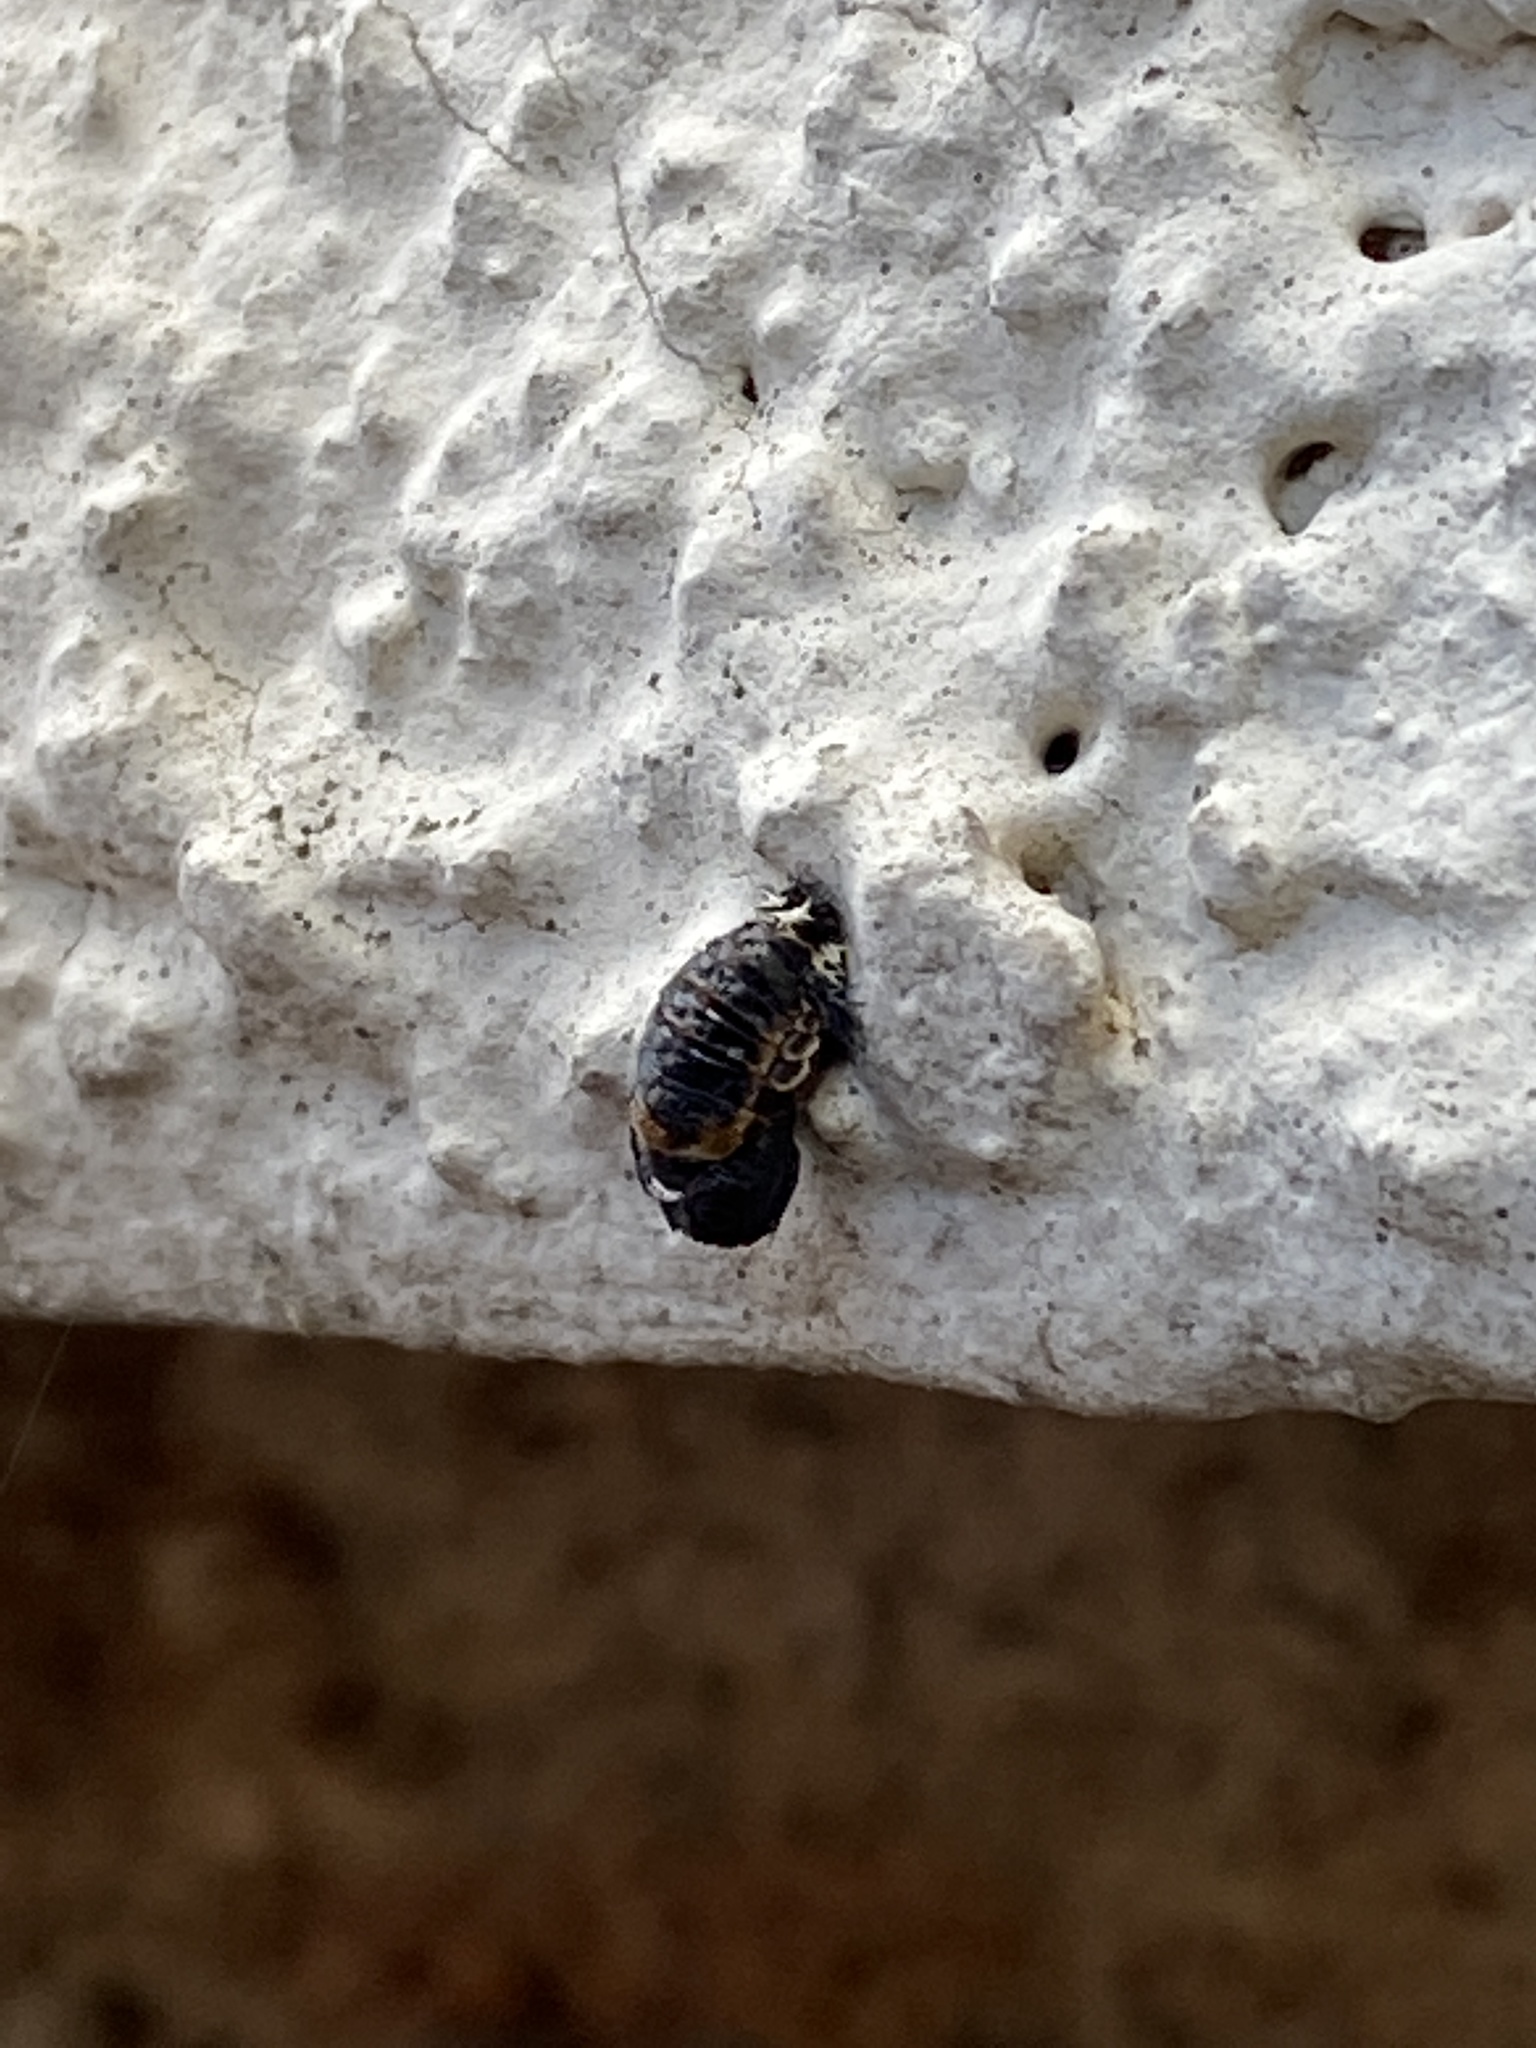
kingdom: Animalia
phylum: Arthropoda
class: Insecta
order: Coleoptera
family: Coccinellidae
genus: Harmonia
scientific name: Harmonia axyridis
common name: Harlequin ladybird
